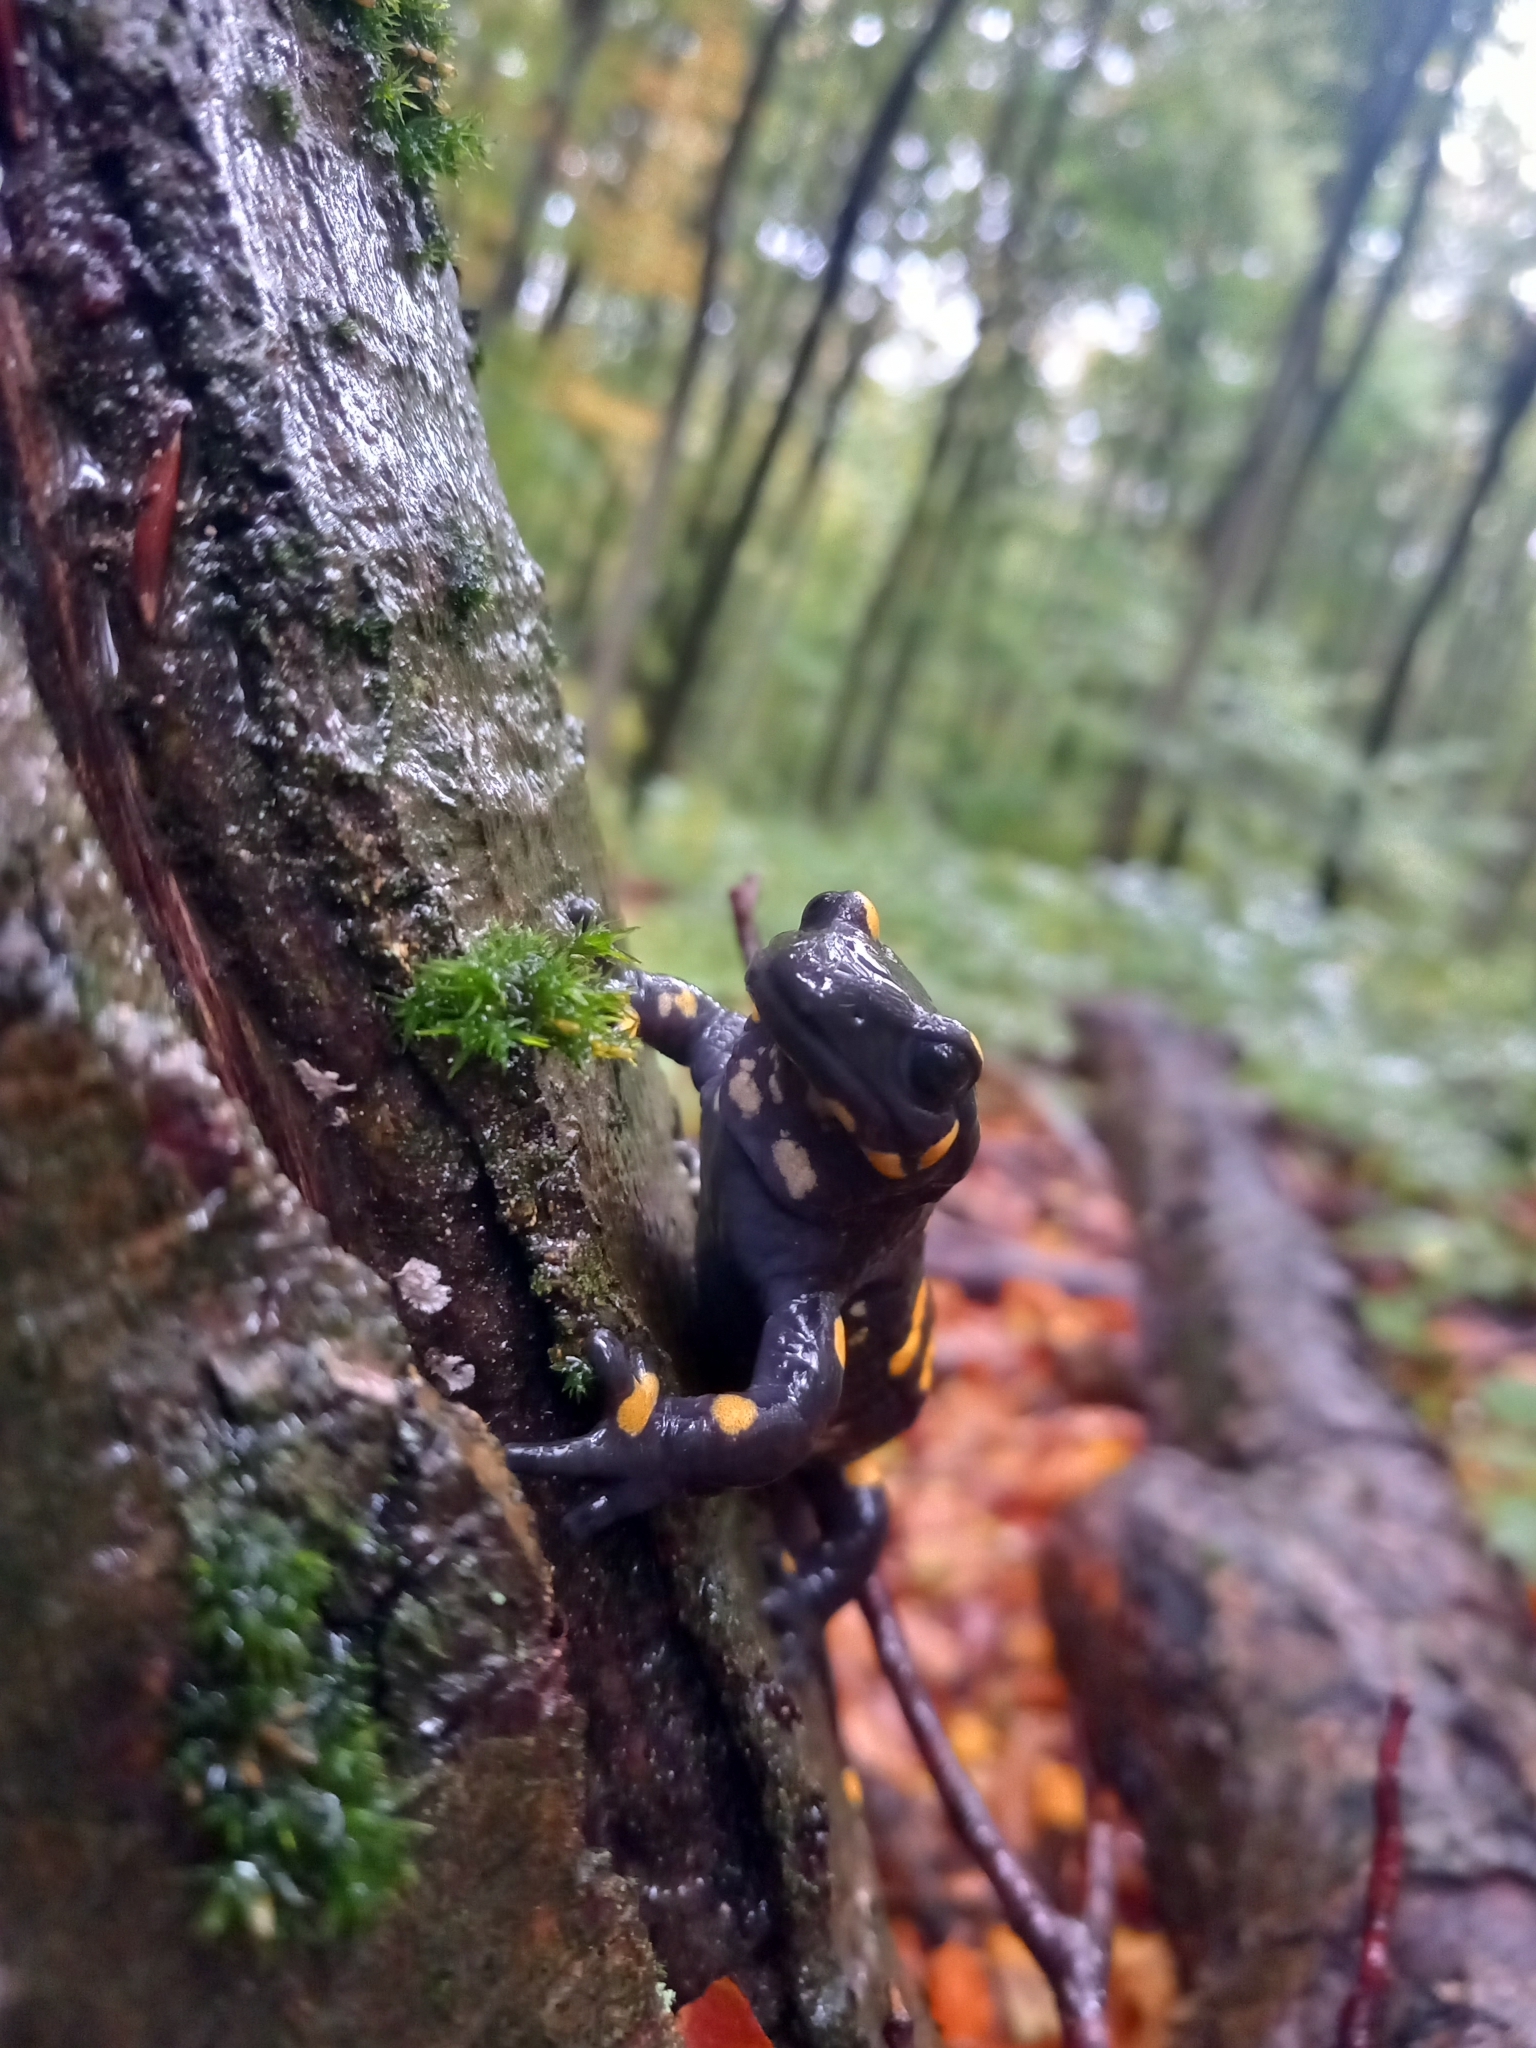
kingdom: Animalia
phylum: Chordata
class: Amphibia
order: Caudata
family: Salamandridae
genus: Salamandra
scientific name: Salamandra salamandra
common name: Fire salamander
